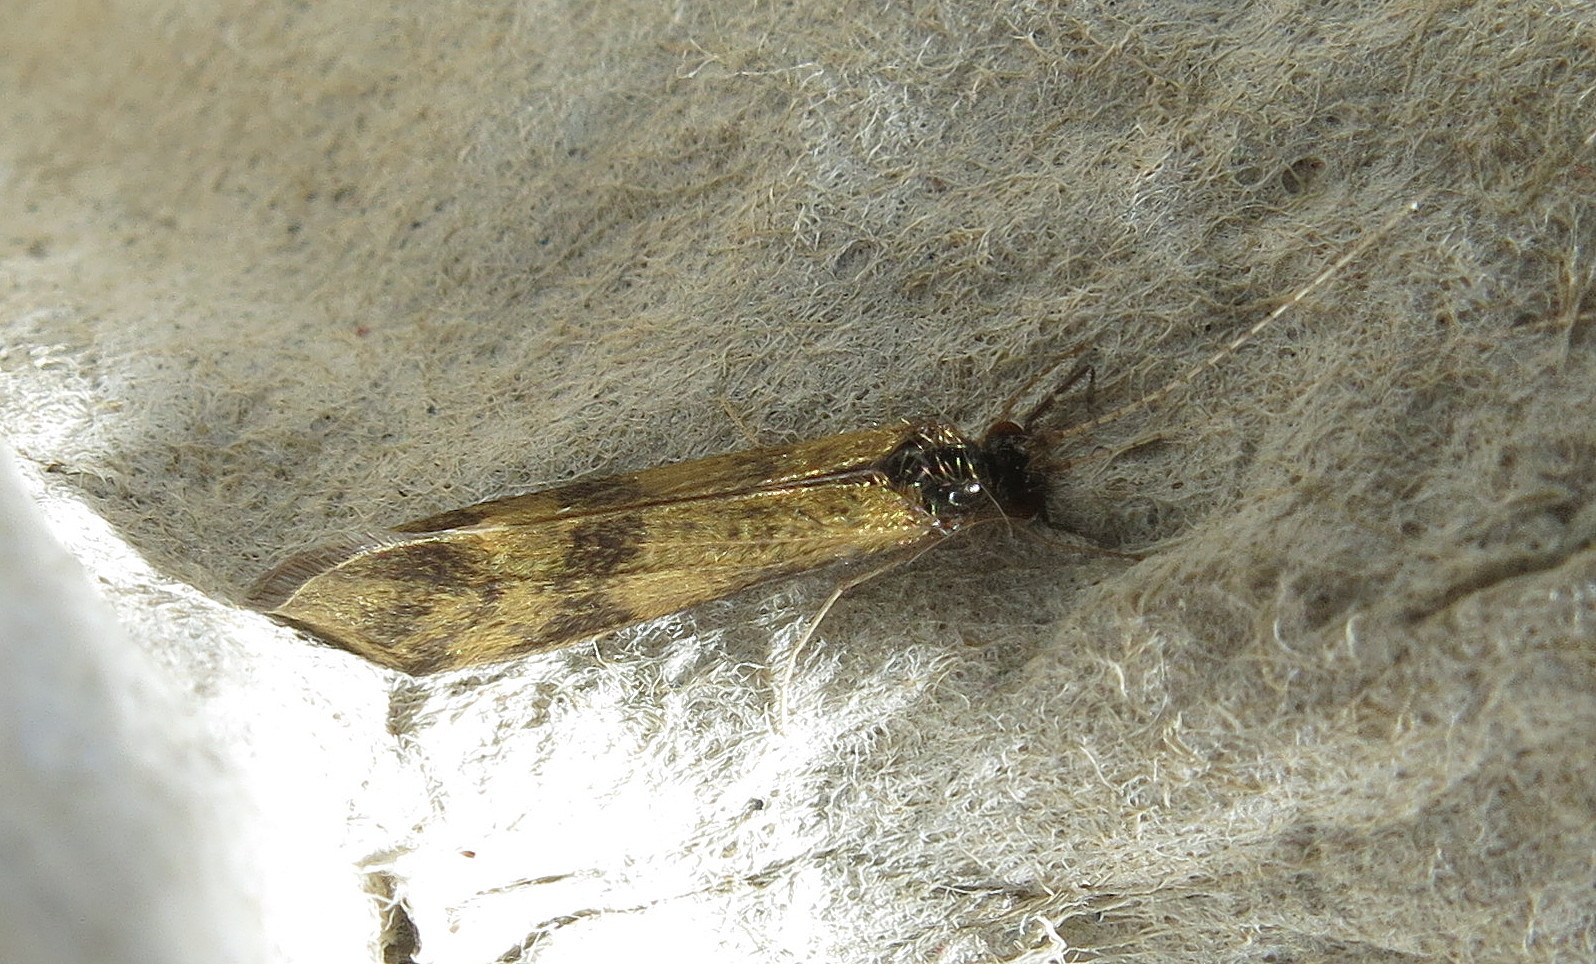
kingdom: Animalia
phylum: Arthropoda
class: Insecta
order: Trichoptera
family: Leptoceridae
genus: Mystacides
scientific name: Mystacides longicornis
